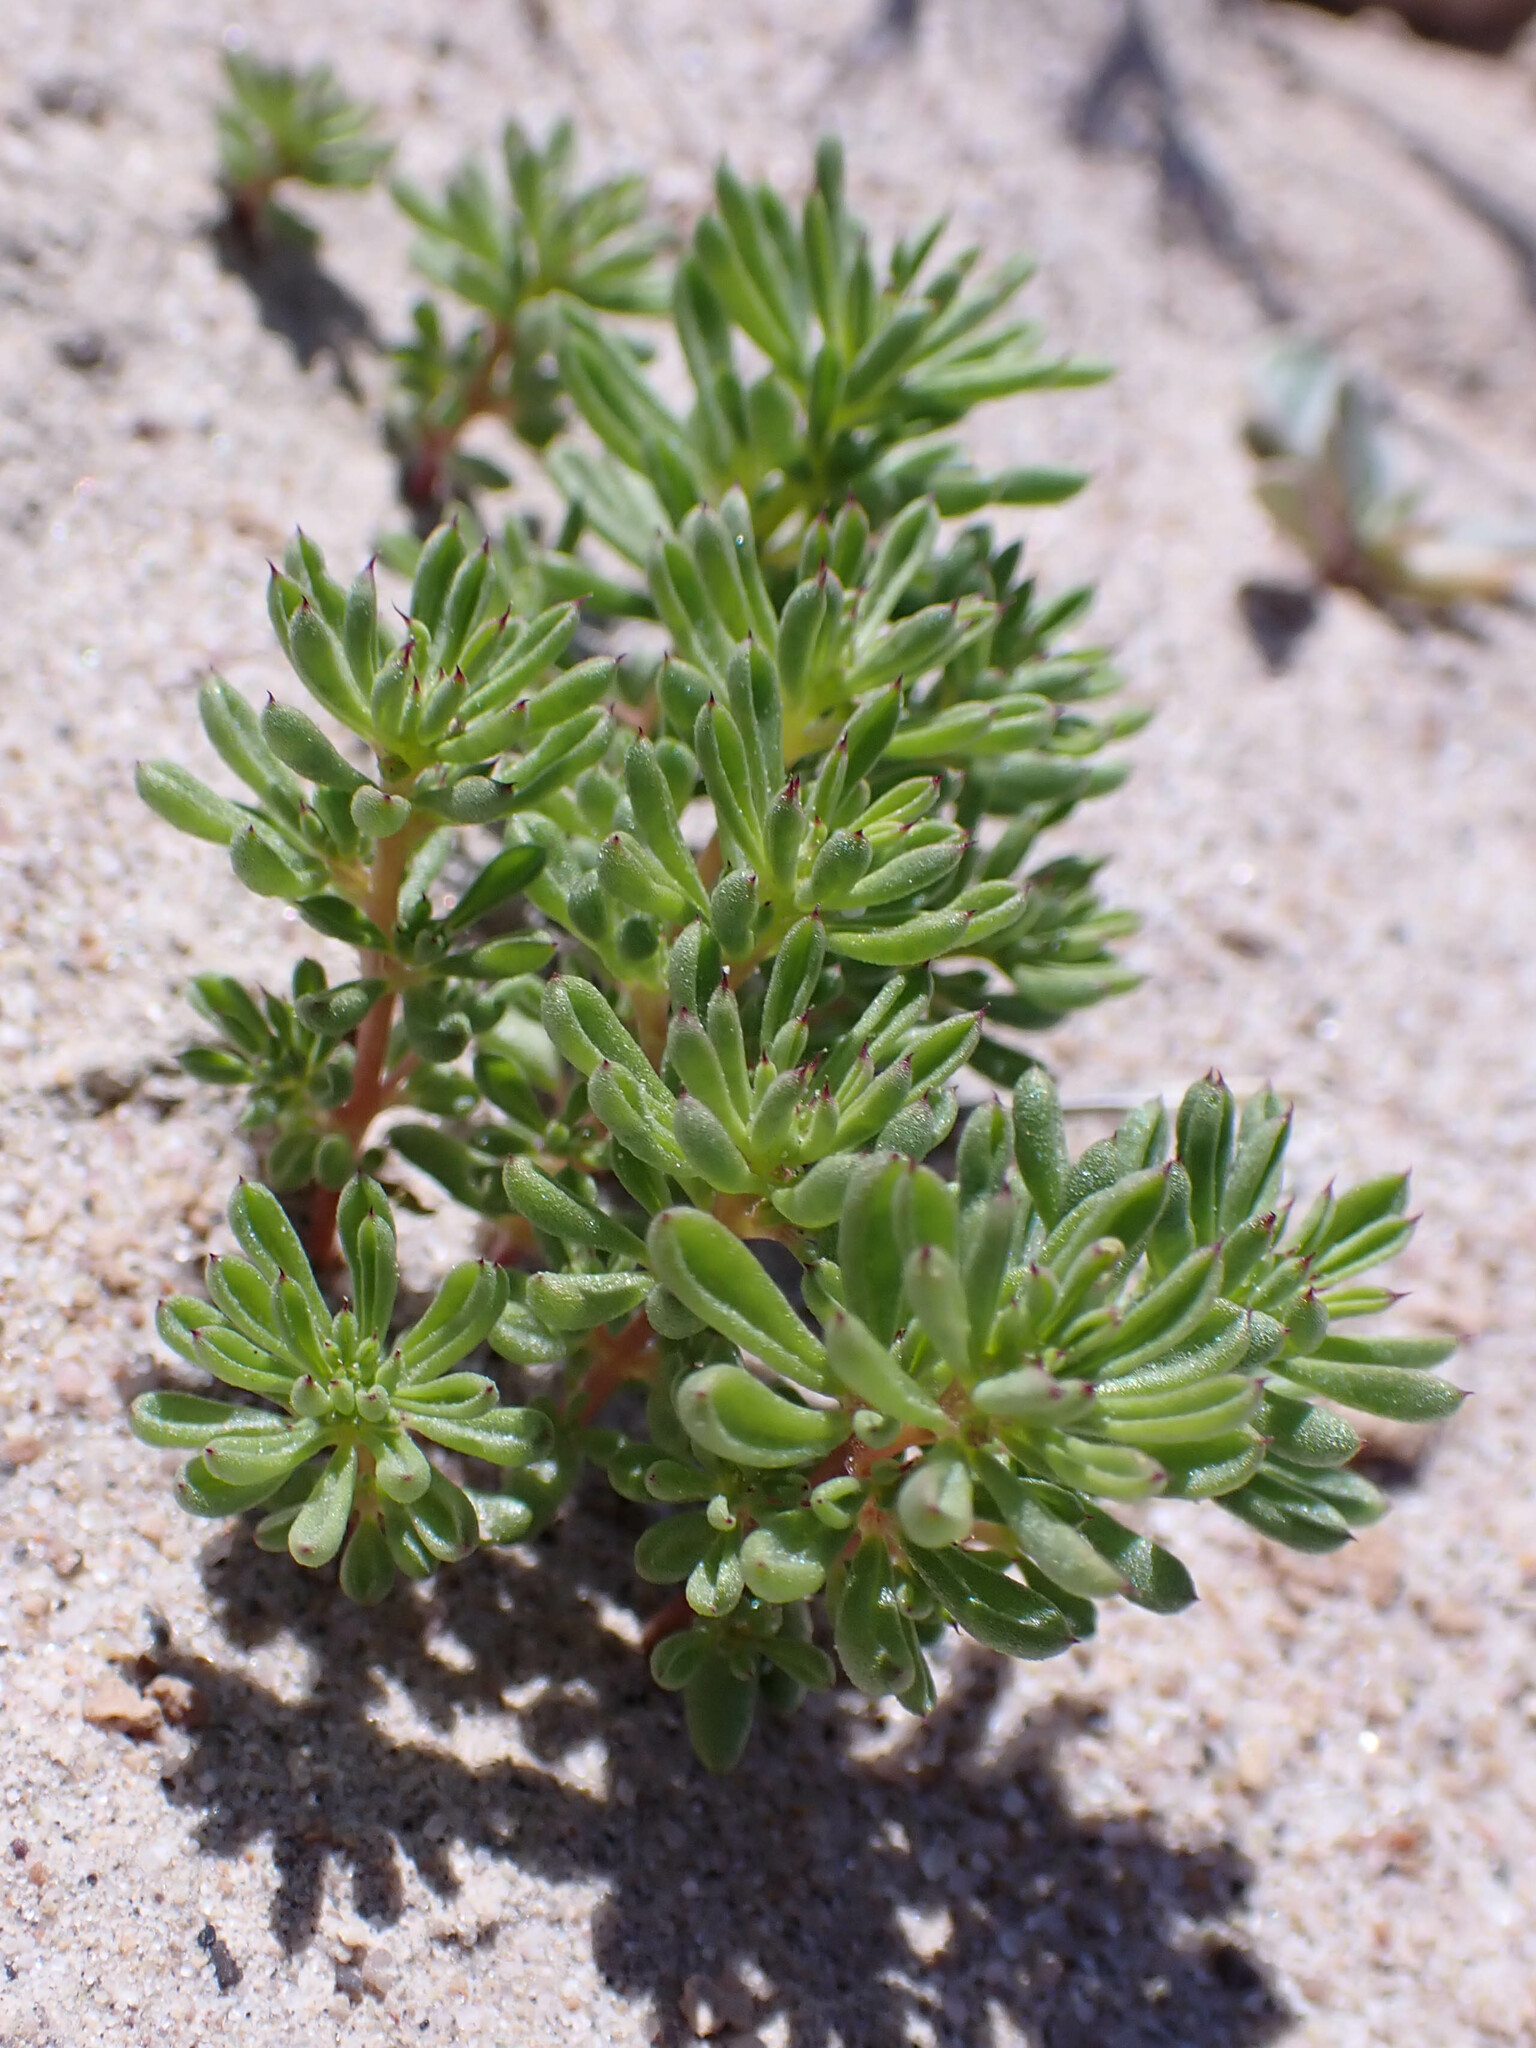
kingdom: Plantae
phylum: Tracheophyta
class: Magnoliopsida
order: Caryophyllales
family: Amaranthaceae
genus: Halogeton
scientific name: Halogeton glomeratus
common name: Saltlover
